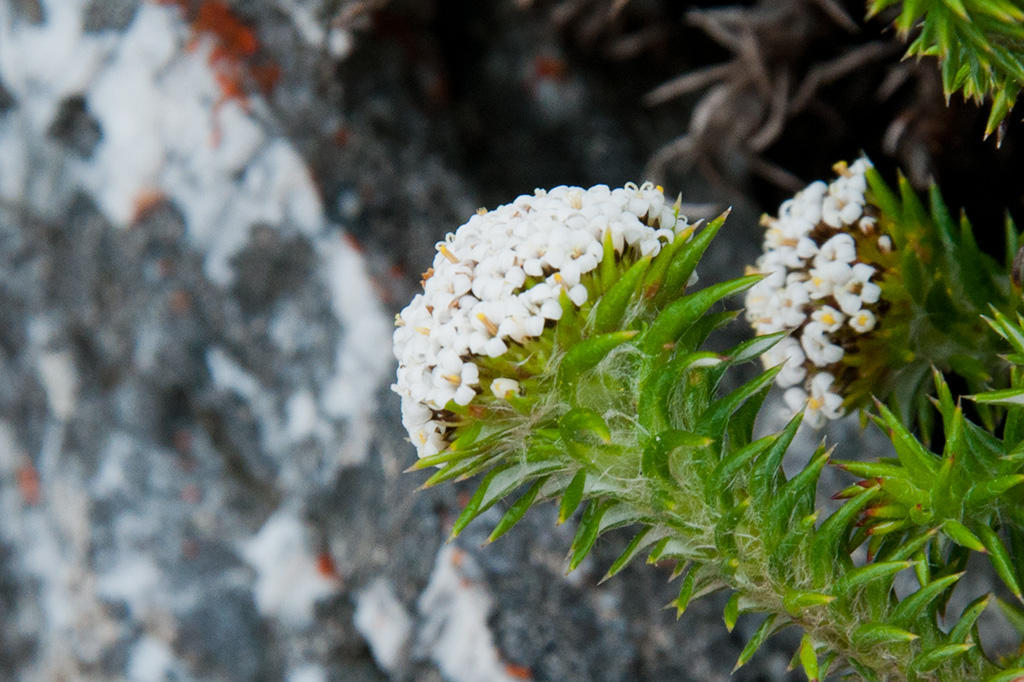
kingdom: Plantae
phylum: Tracheophyta
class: Magnoliopsida
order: Asterales
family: Asteraceae
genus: Stoebe
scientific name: Stoebe aethiopica
